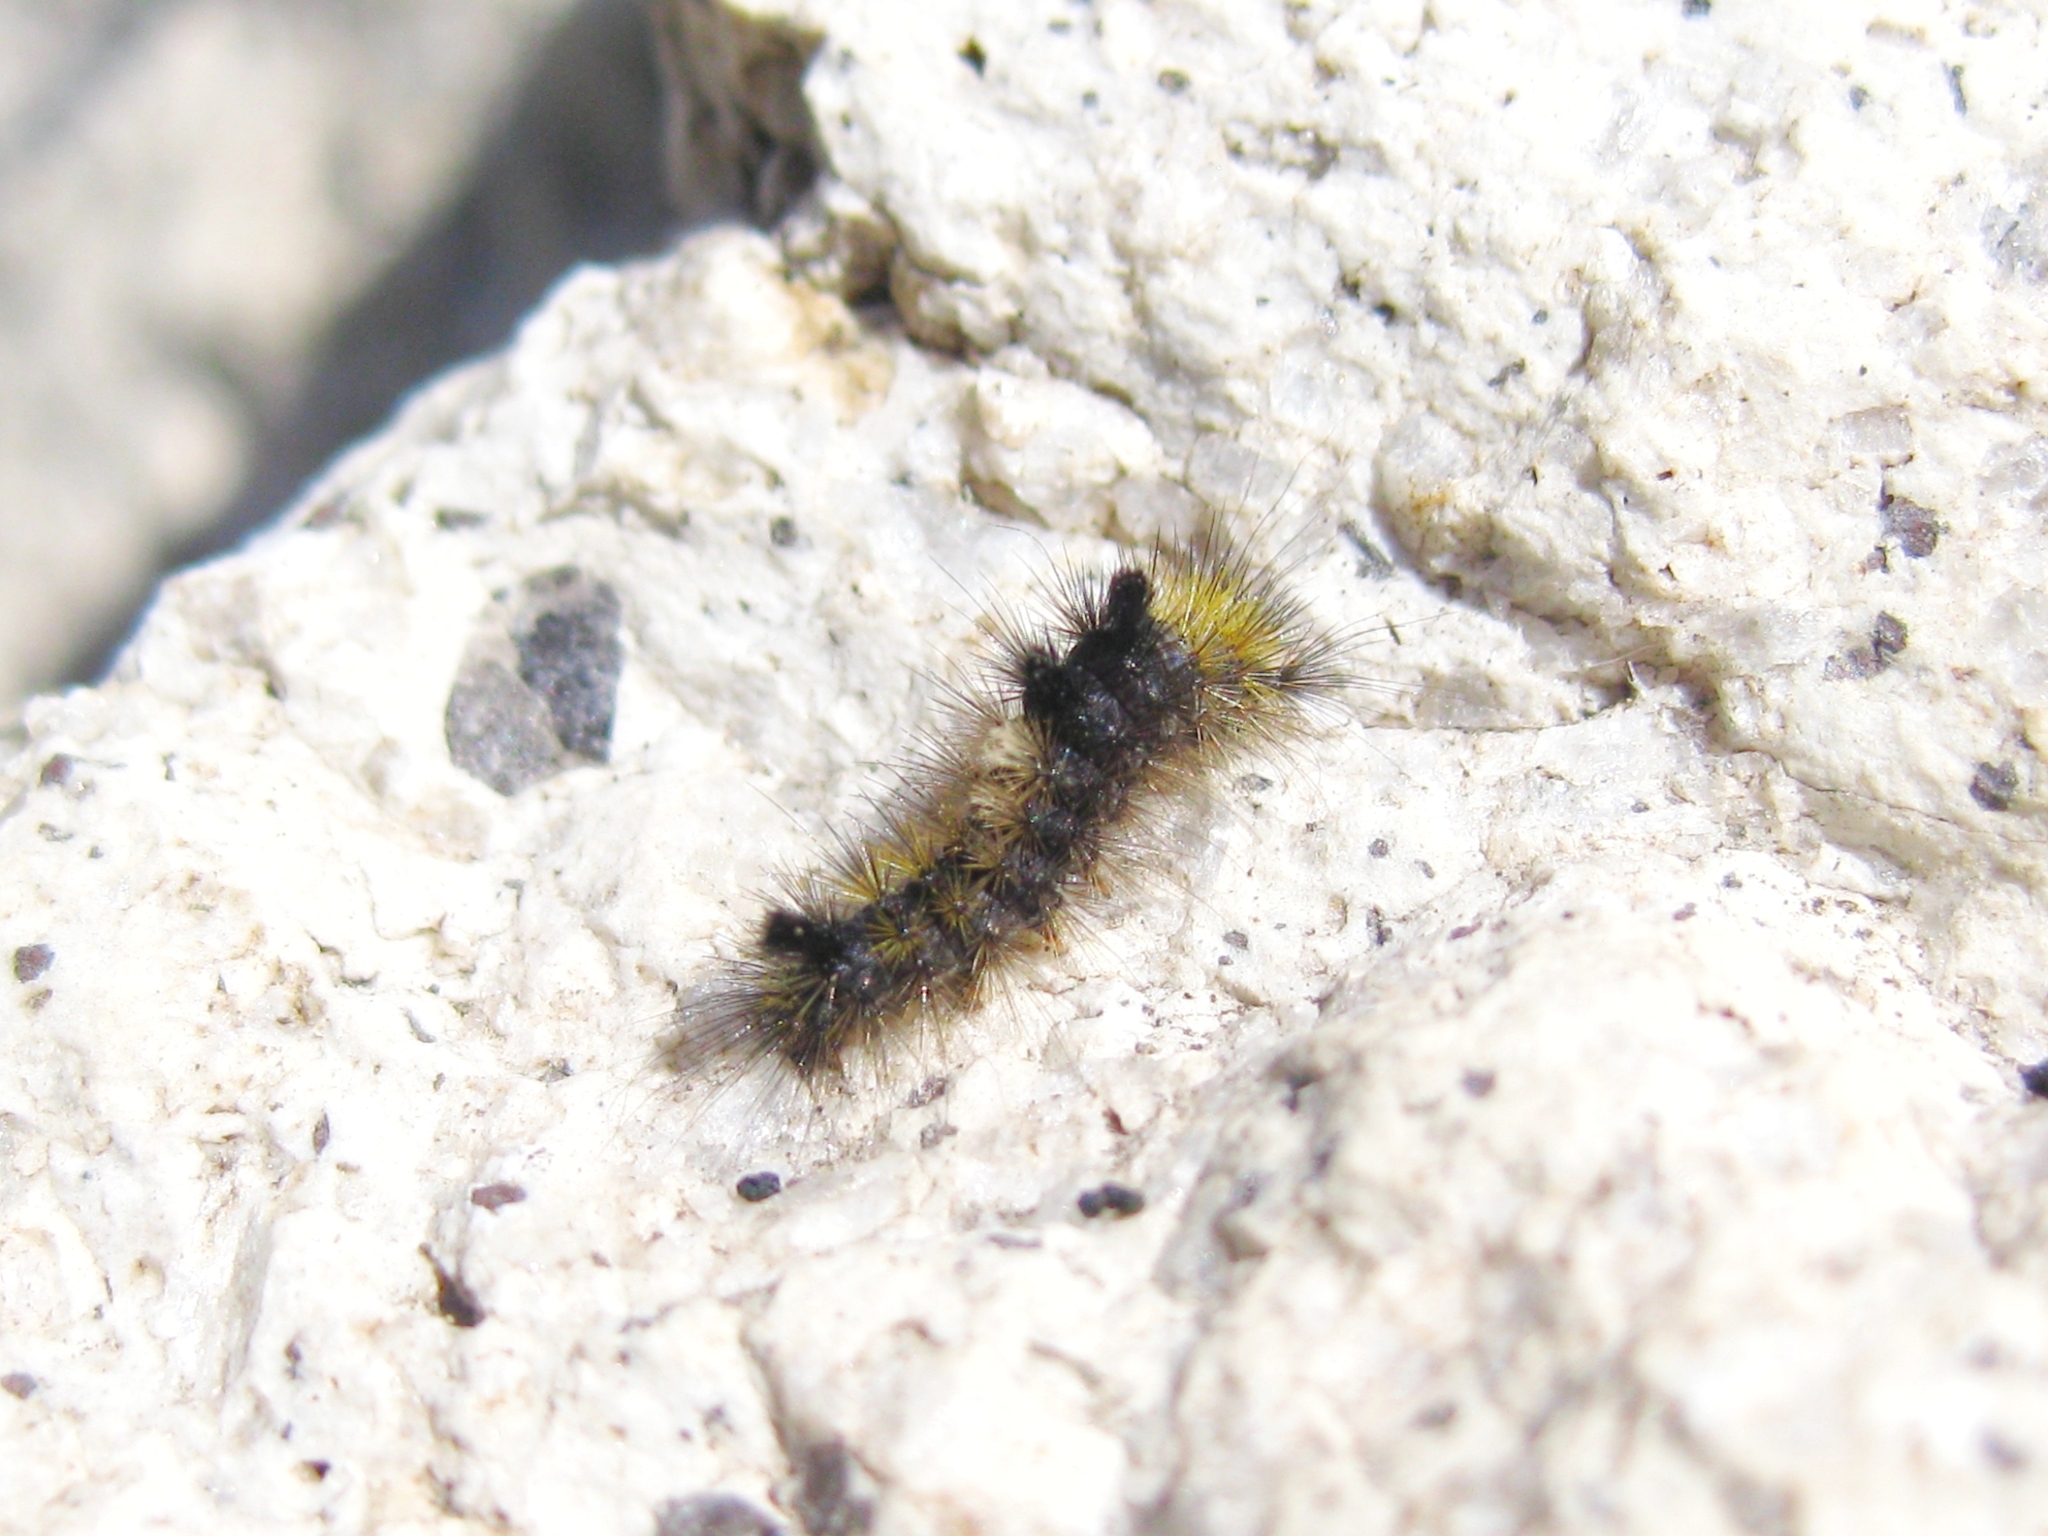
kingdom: Animalia
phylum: Arthropoda
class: Insecta
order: Lepidoptera
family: Erebidae
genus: Gynaephora
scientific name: Gynaephora
